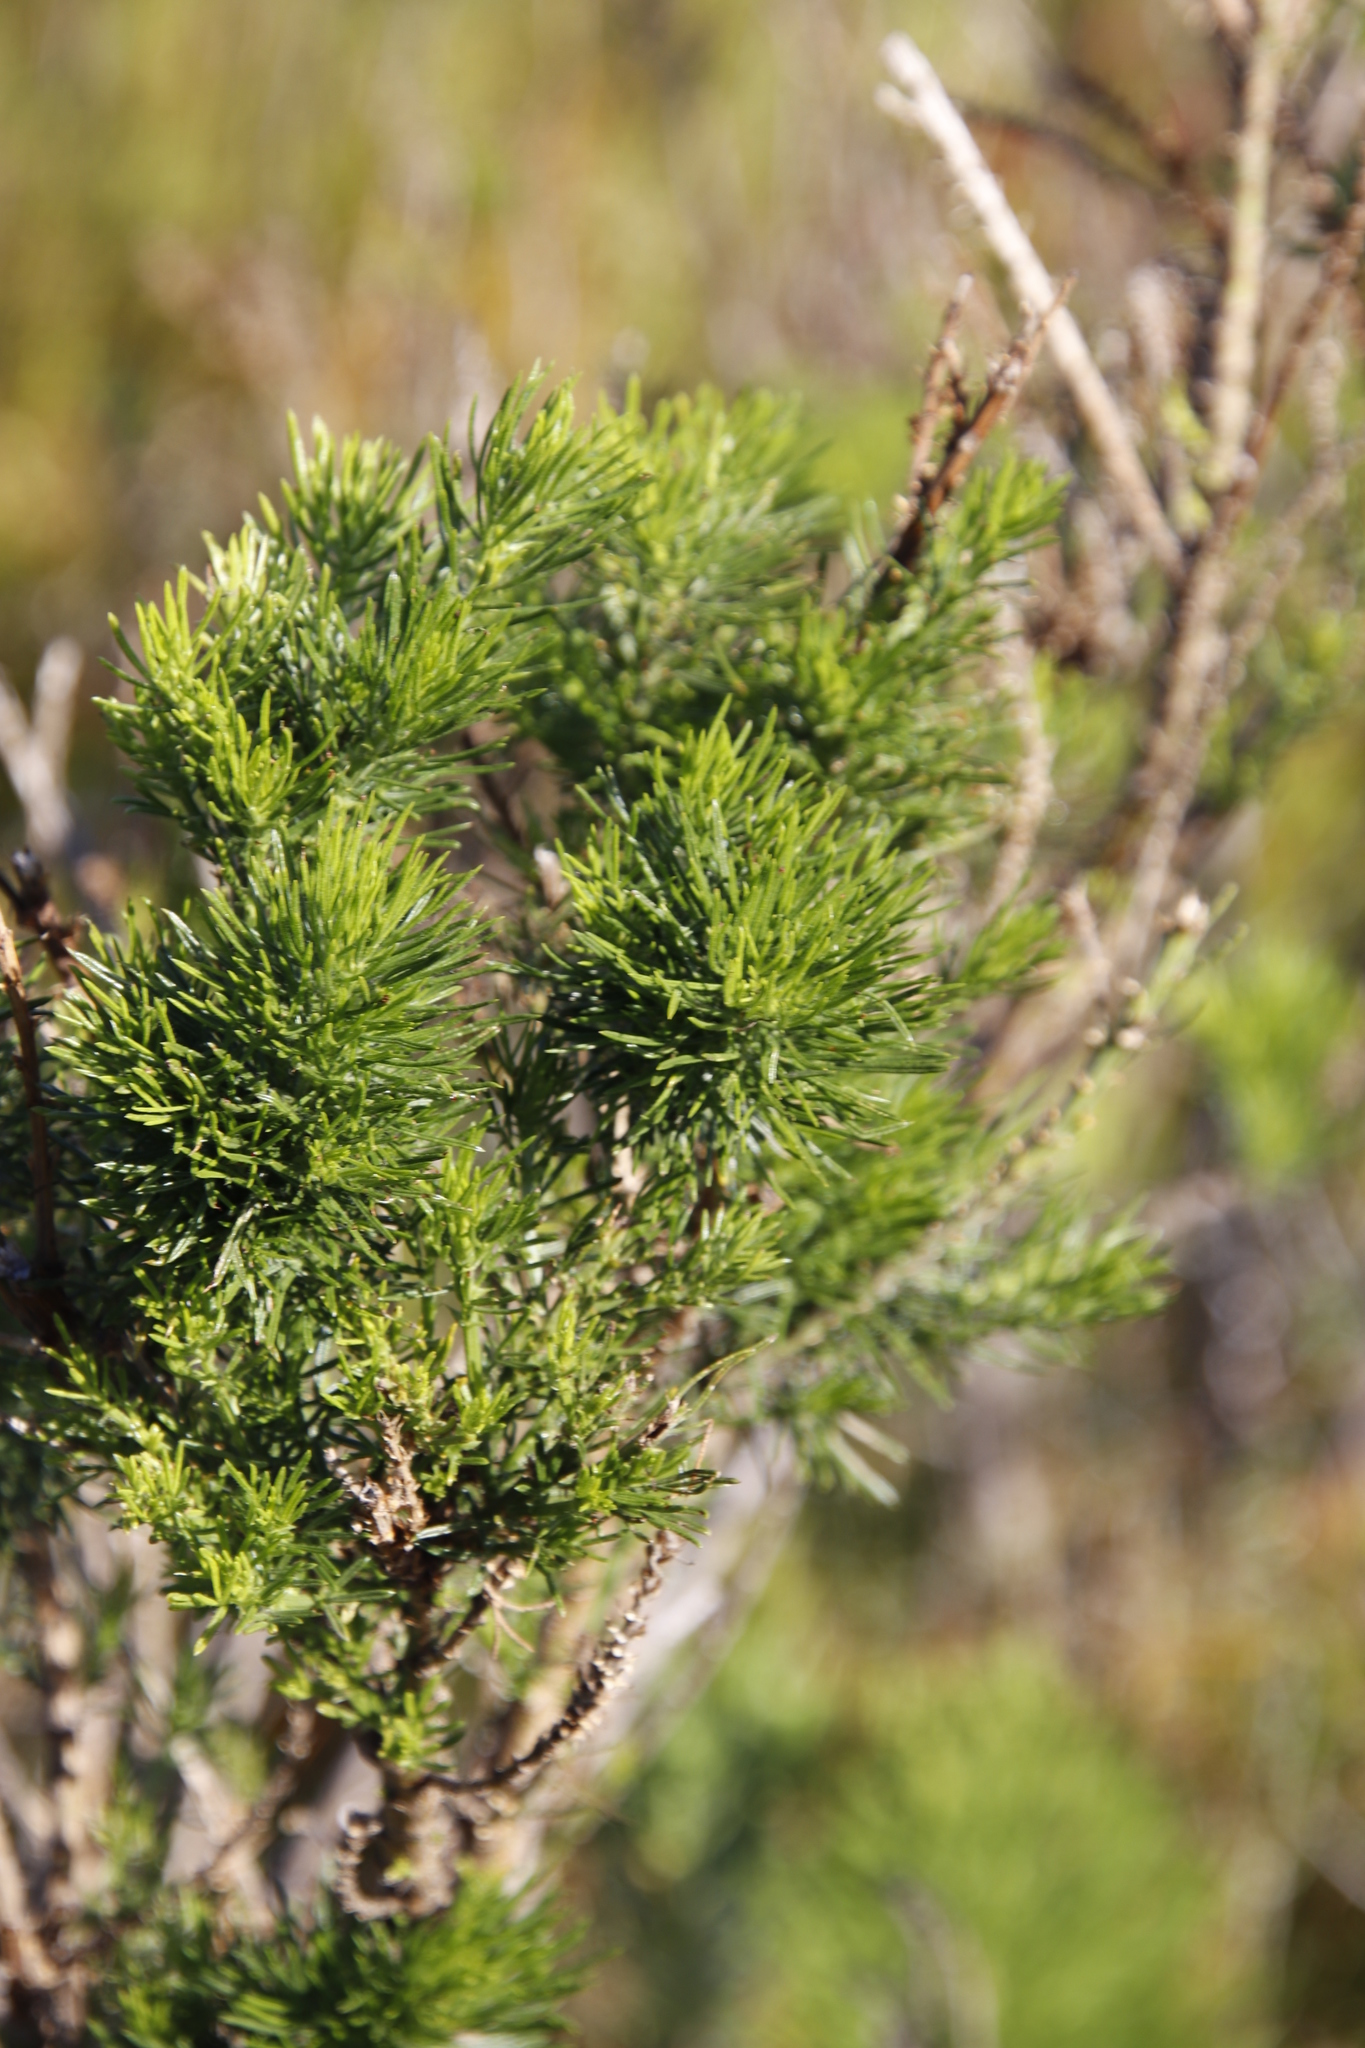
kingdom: Plantae
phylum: Tracheophyta
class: Magnoliopsida
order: Fabales
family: Fabaceae
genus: Psoralea
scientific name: Psoralea pinnata
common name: African scurfpea
